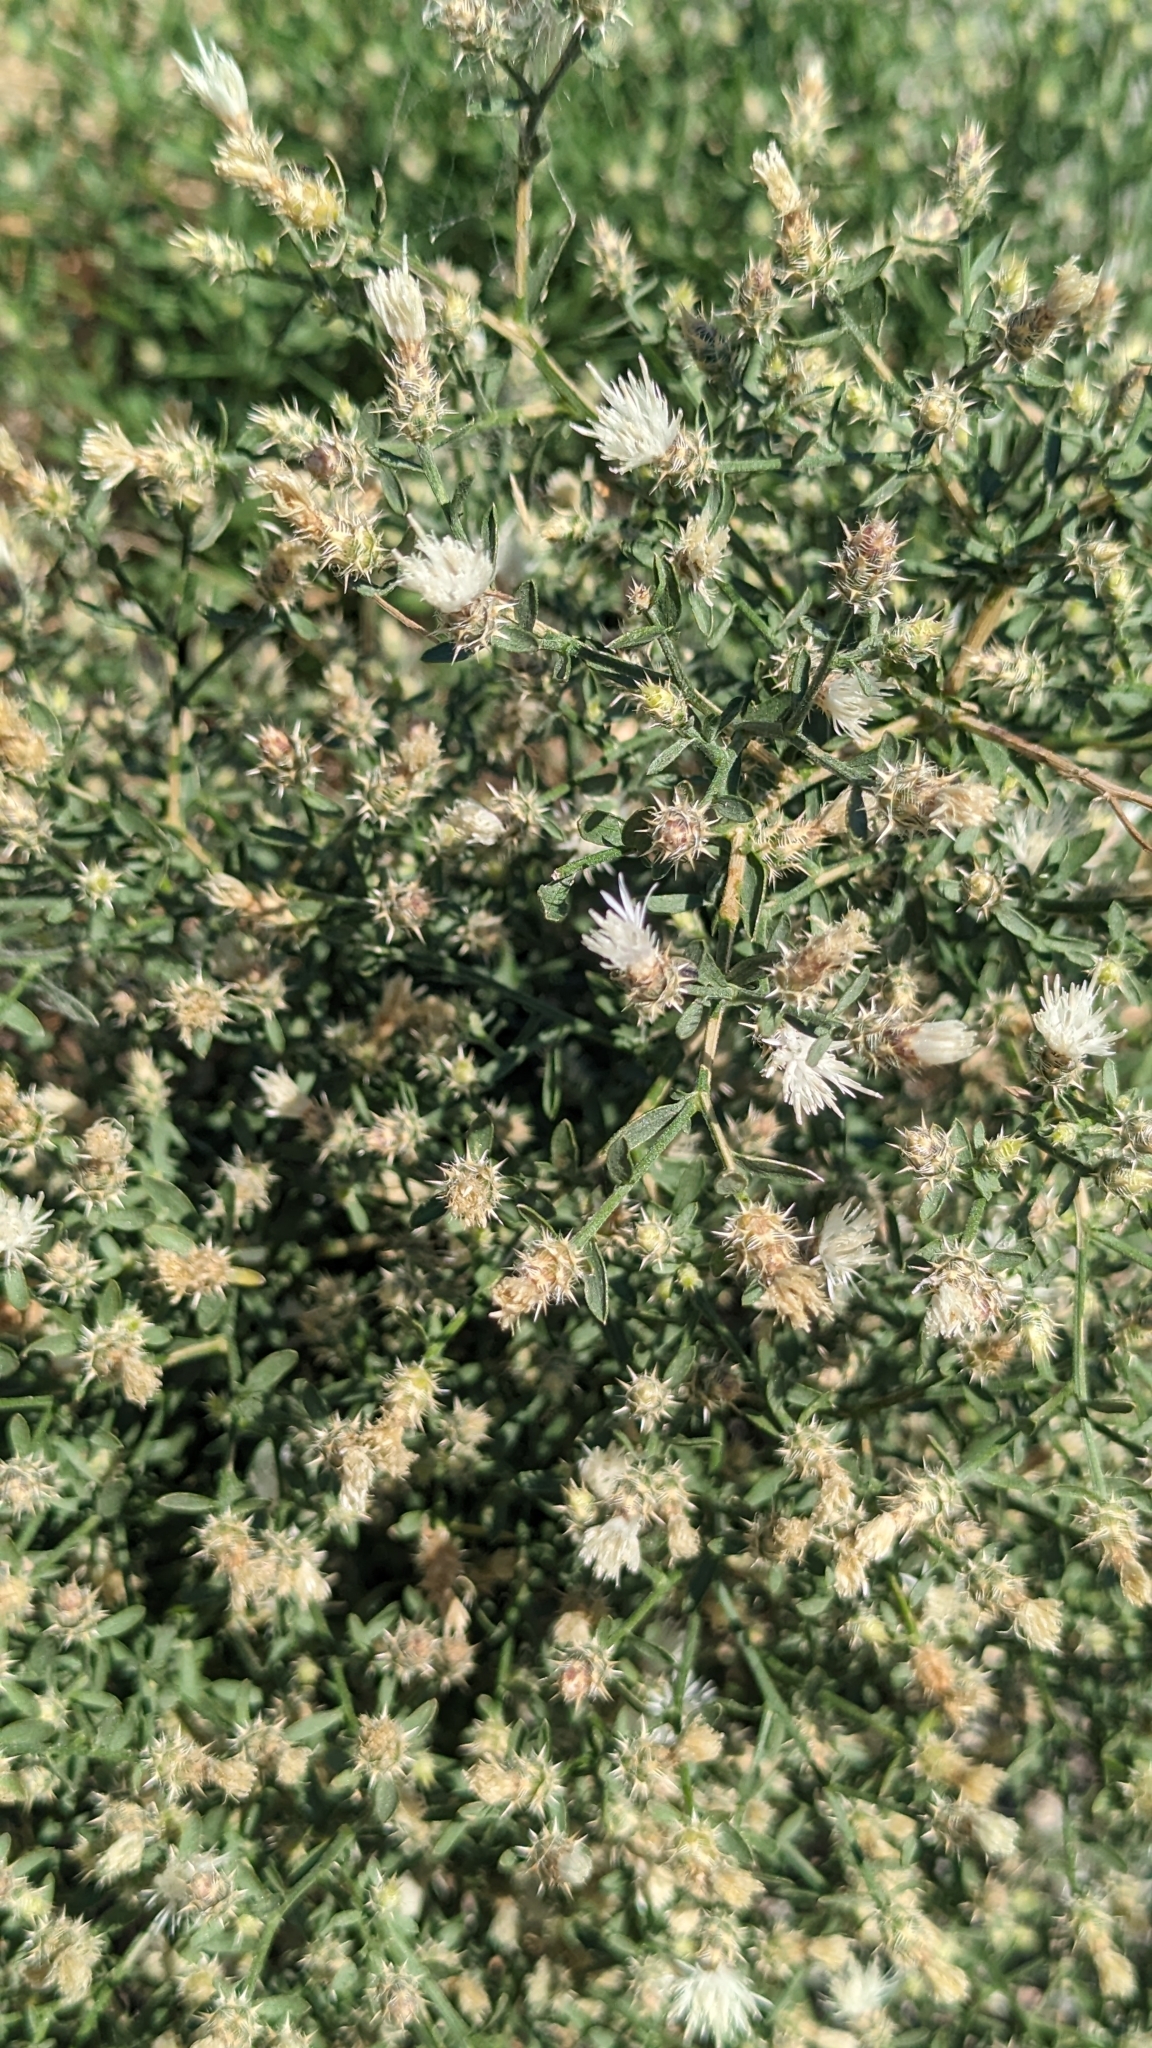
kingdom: Plantae
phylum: Tracheophyta
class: Magnoliopsida
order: Asterales
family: Asteraceae
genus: Centaurea
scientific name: Centaurea diffusa
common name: Diffuse knapweed
